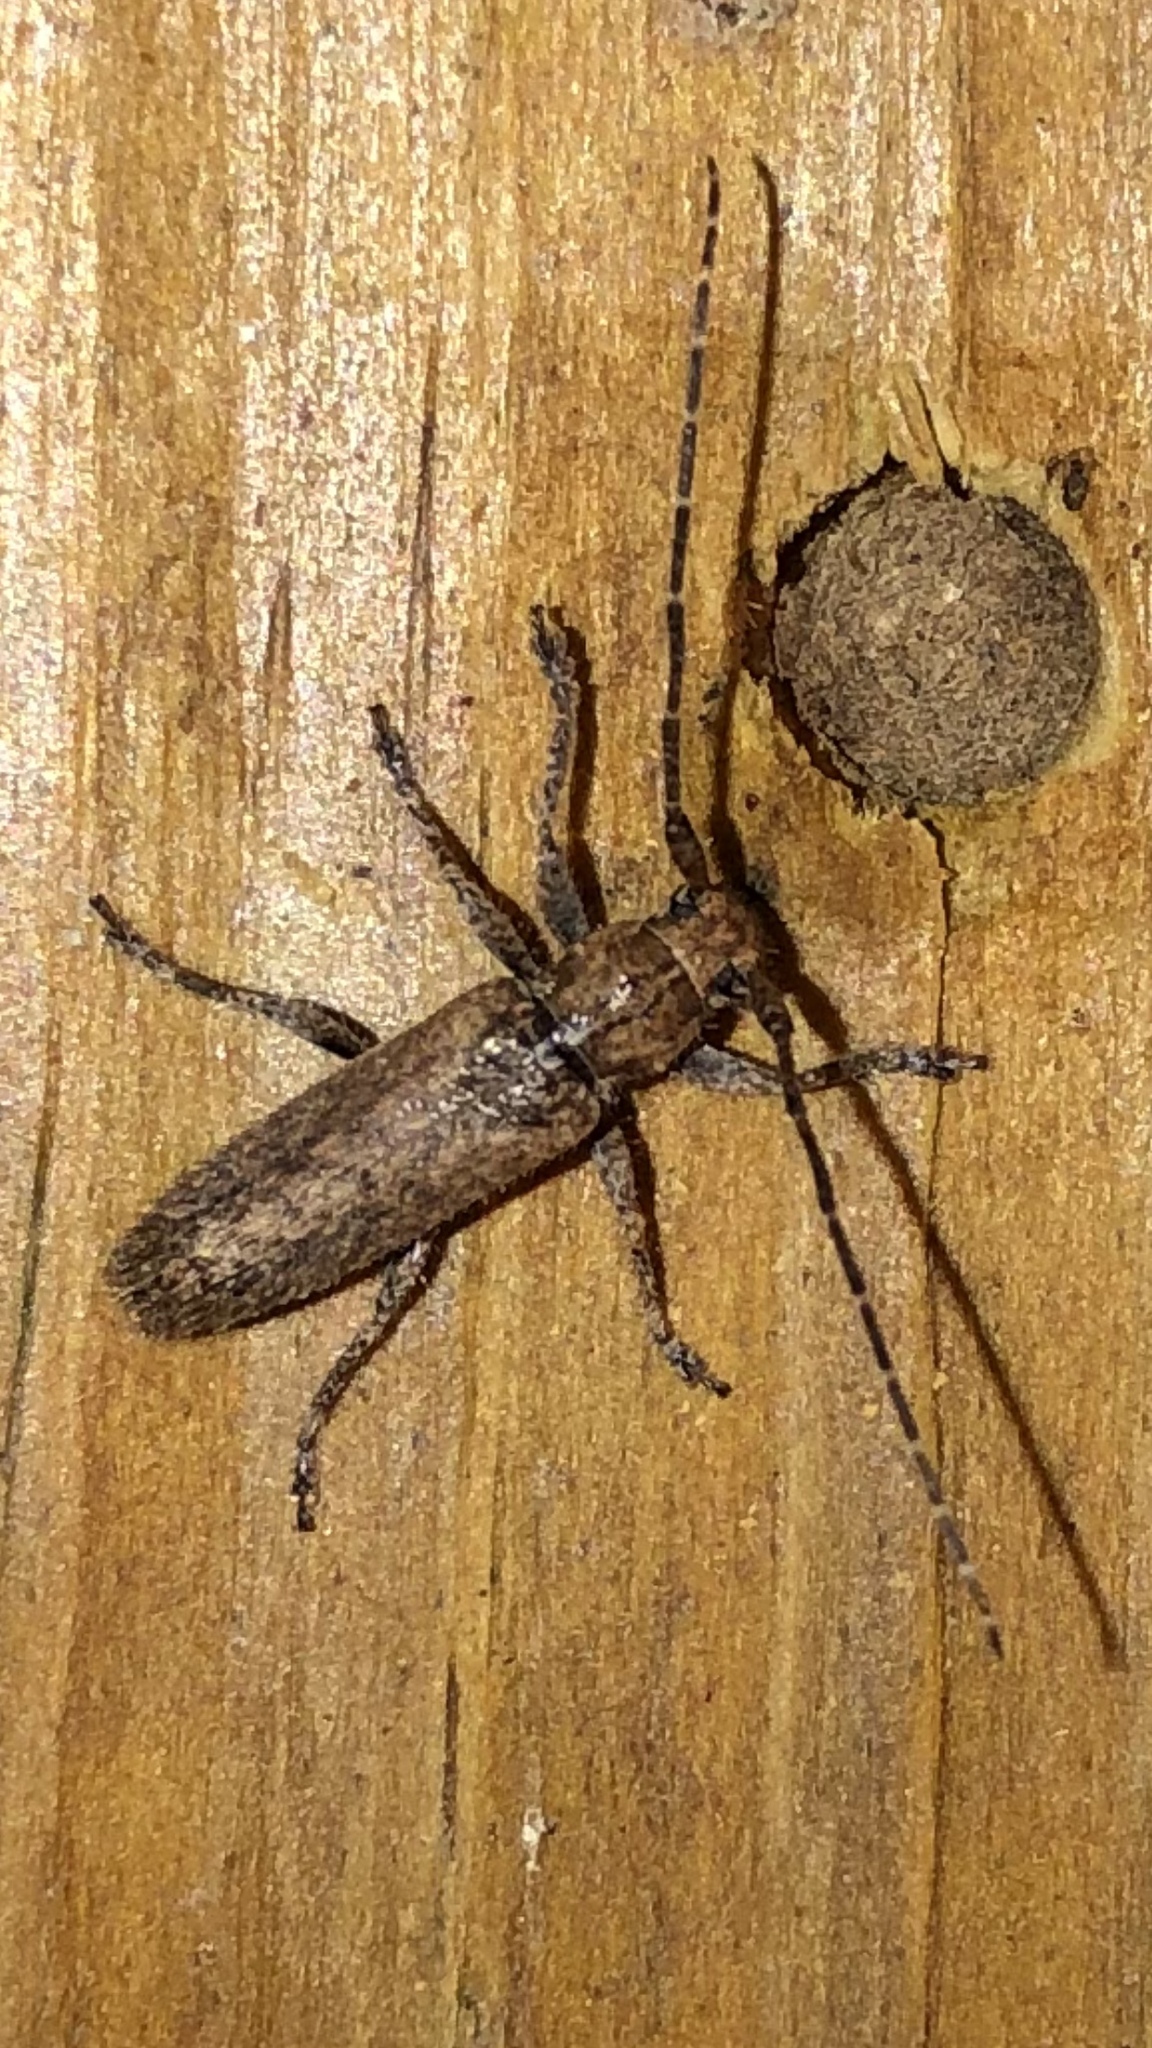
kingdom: Animalia
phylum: Arthropoda
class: Insecta
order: Coleoptera
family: Cerambycidae
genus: Ataxia
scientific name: Ataxia crypta
